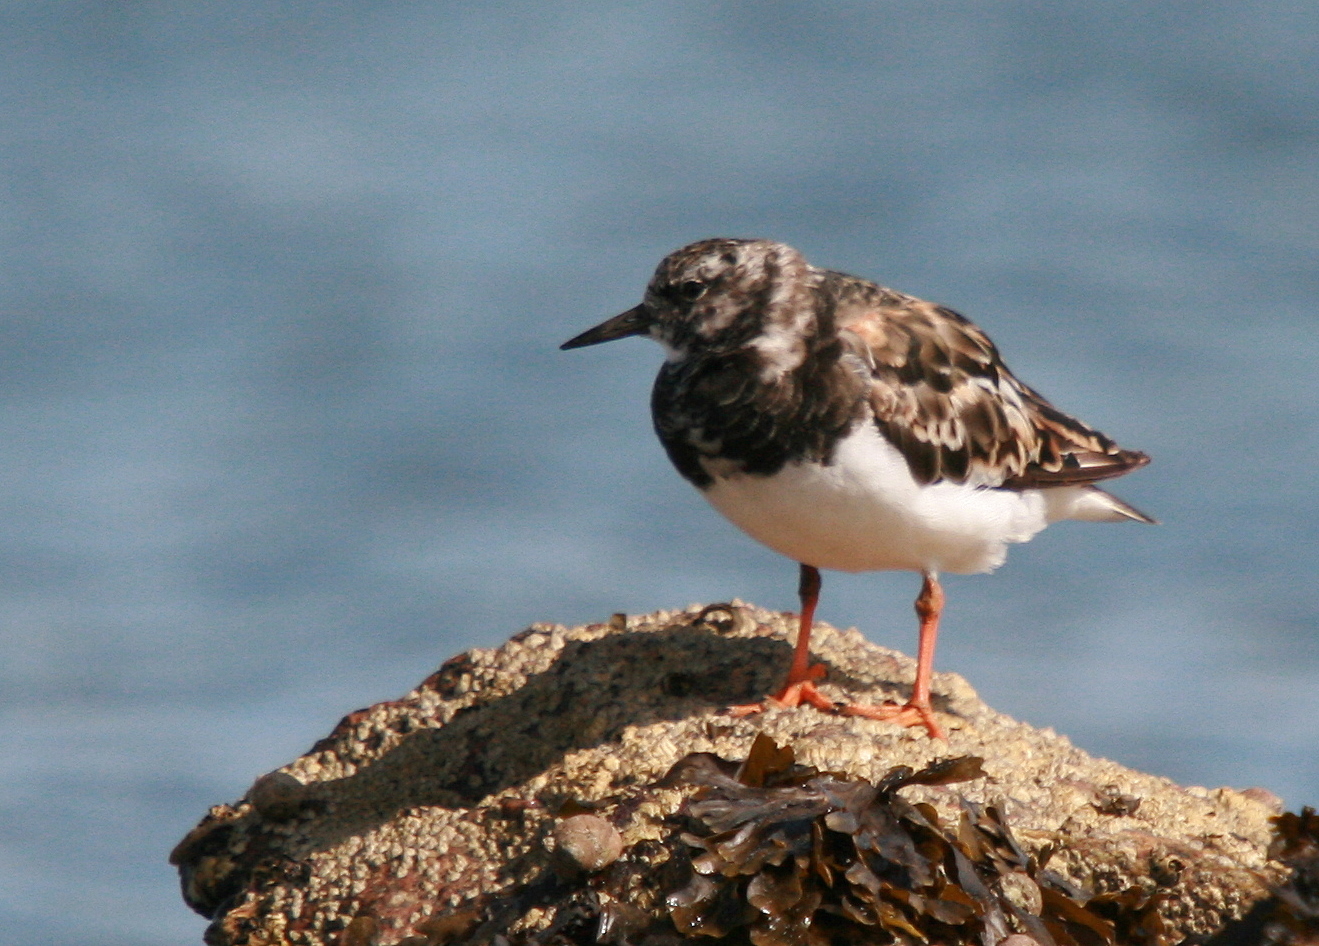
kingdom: Animalia
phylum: Chordata
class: Aves
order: Charadriiformes
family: Scolopacidae
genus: Arenaria
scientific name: Arenaria interpres
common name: Ruddy turnstone
